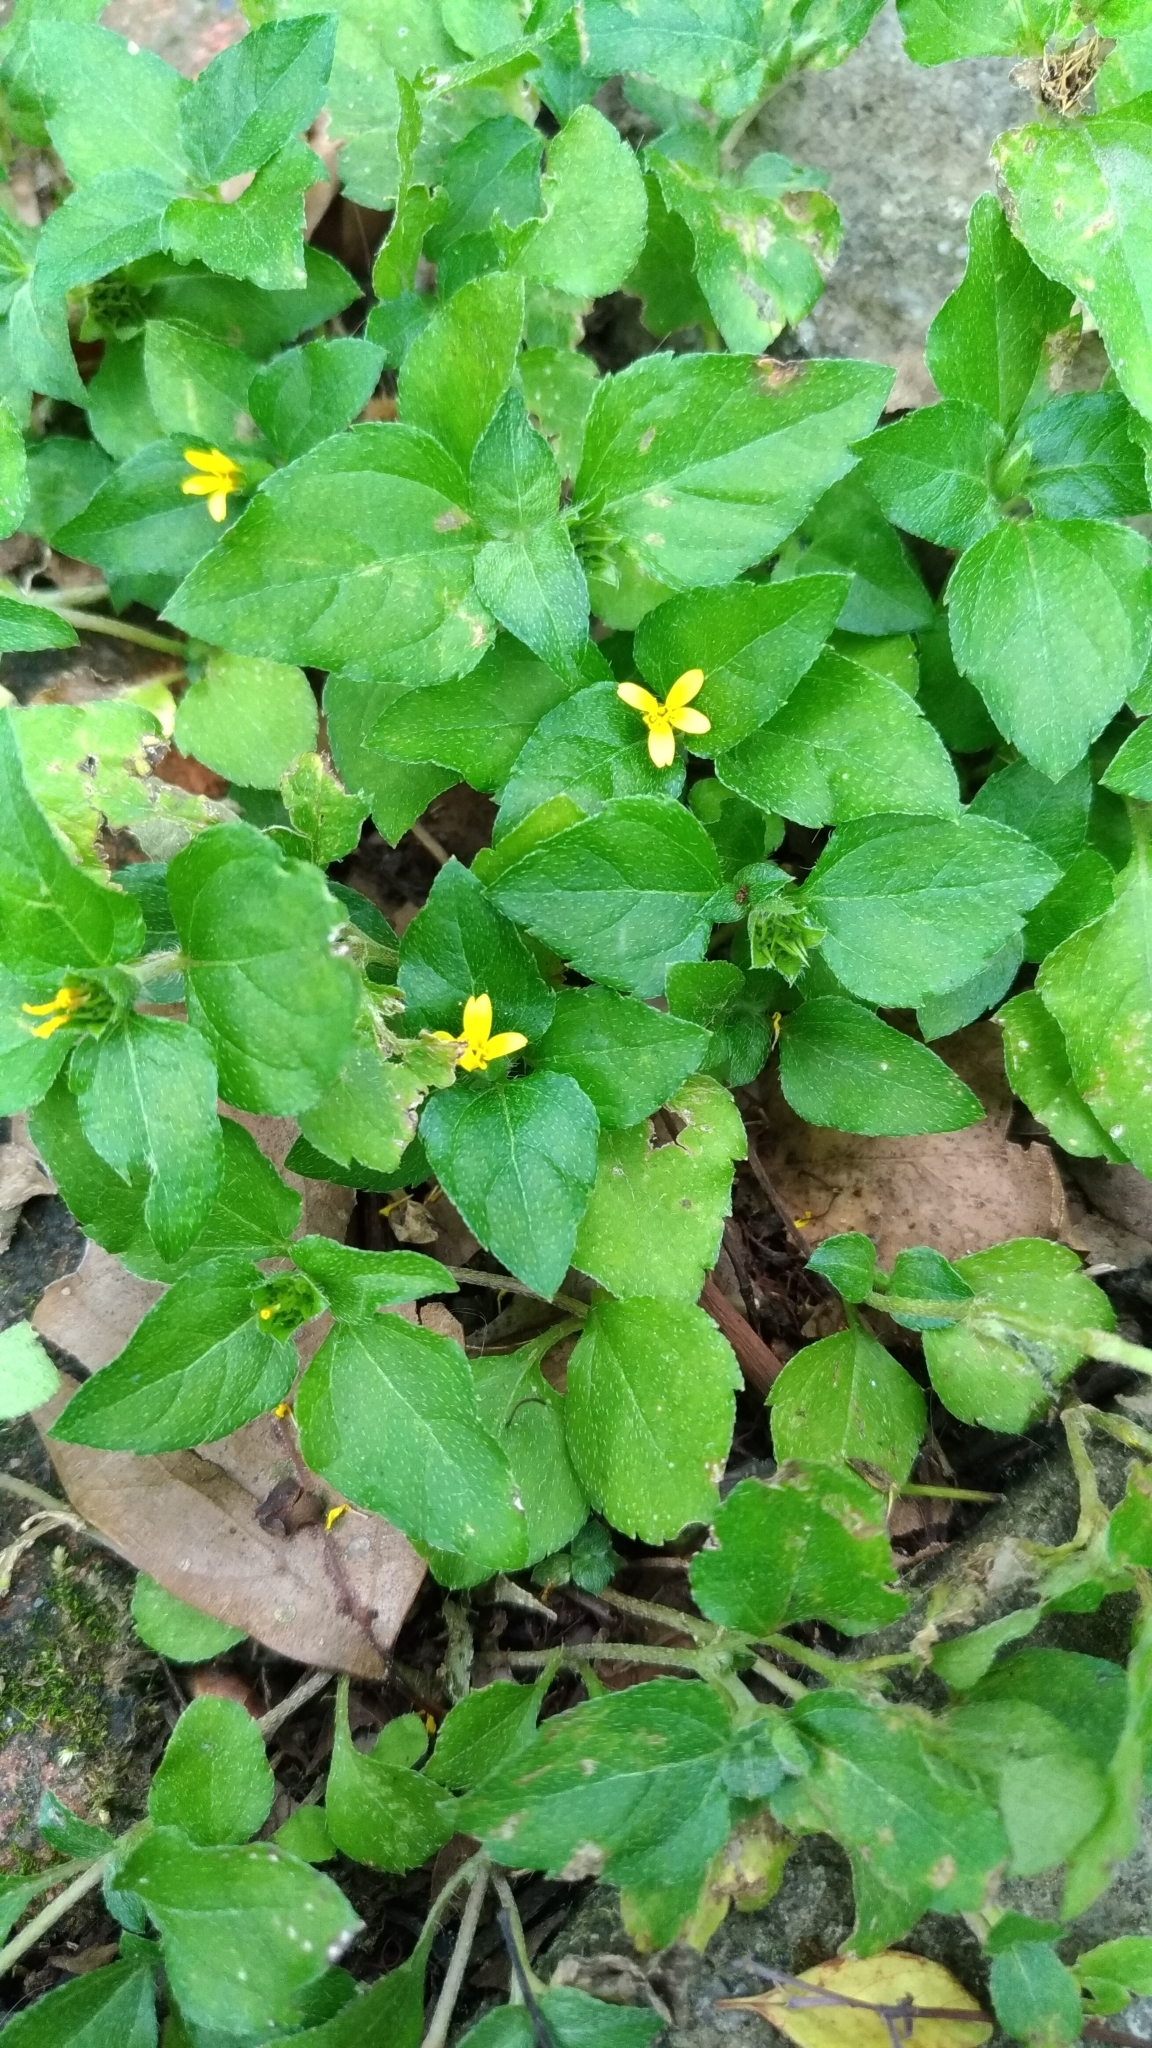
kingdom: Plantae
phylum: Tracheophyta
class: Magnoliopsida
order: Asterales
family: Asteraceae
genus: Calyptocarpus
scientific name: Calyptocarpus vialis
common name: Straggler daisy
